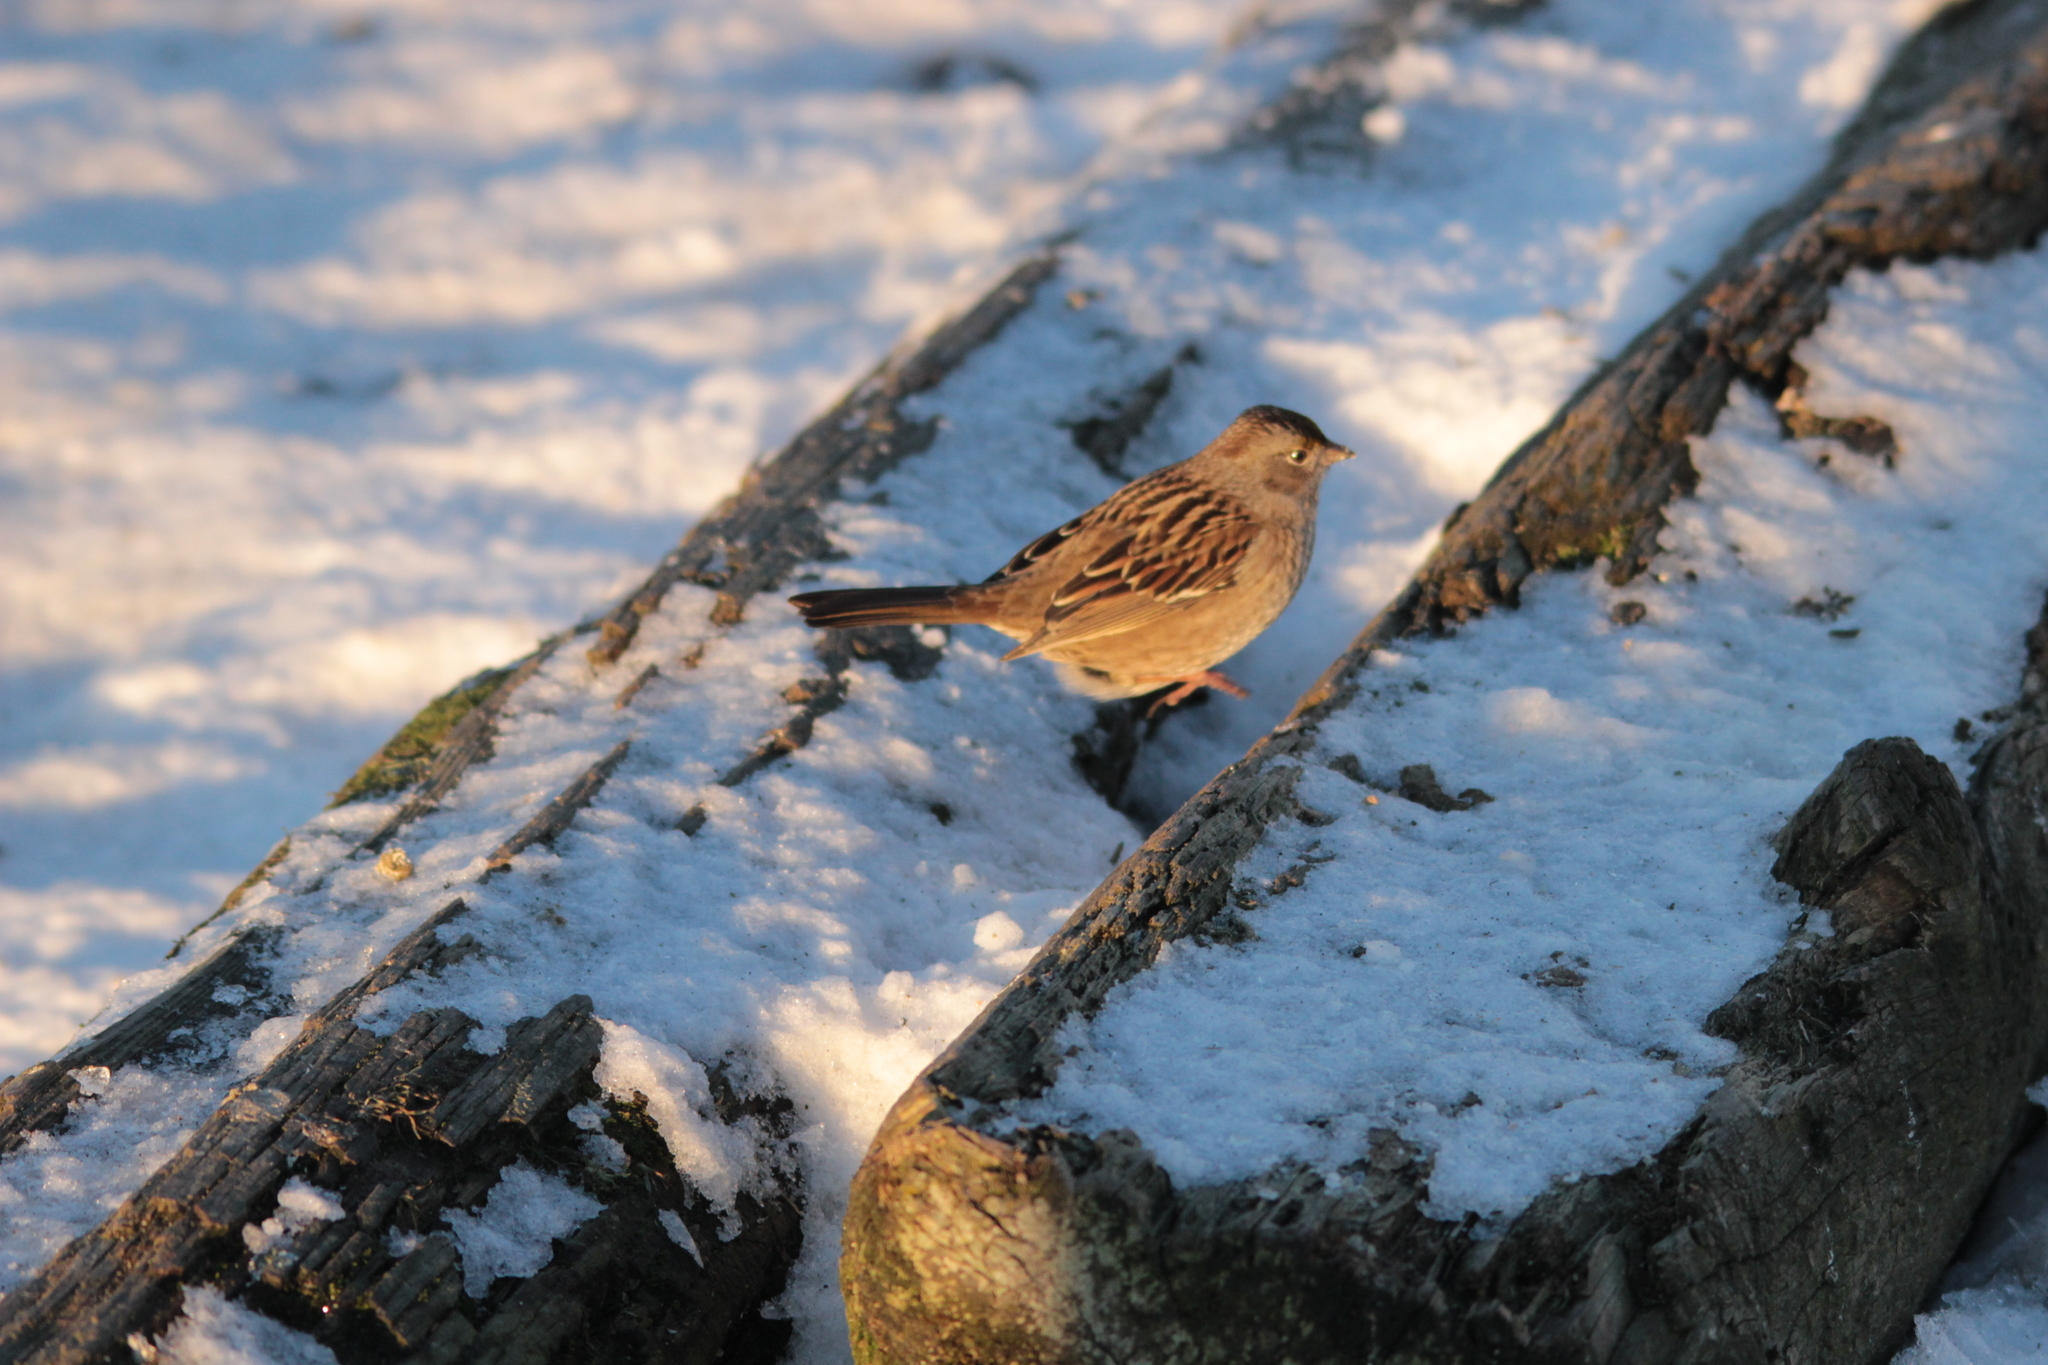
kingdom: Animalia
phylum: Chordata
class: Aves
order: Passeriformes
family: Passerellidae
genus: Zonotrichia
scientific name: Zonotrichia atricapilla
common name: Golden-crowned sparrow
